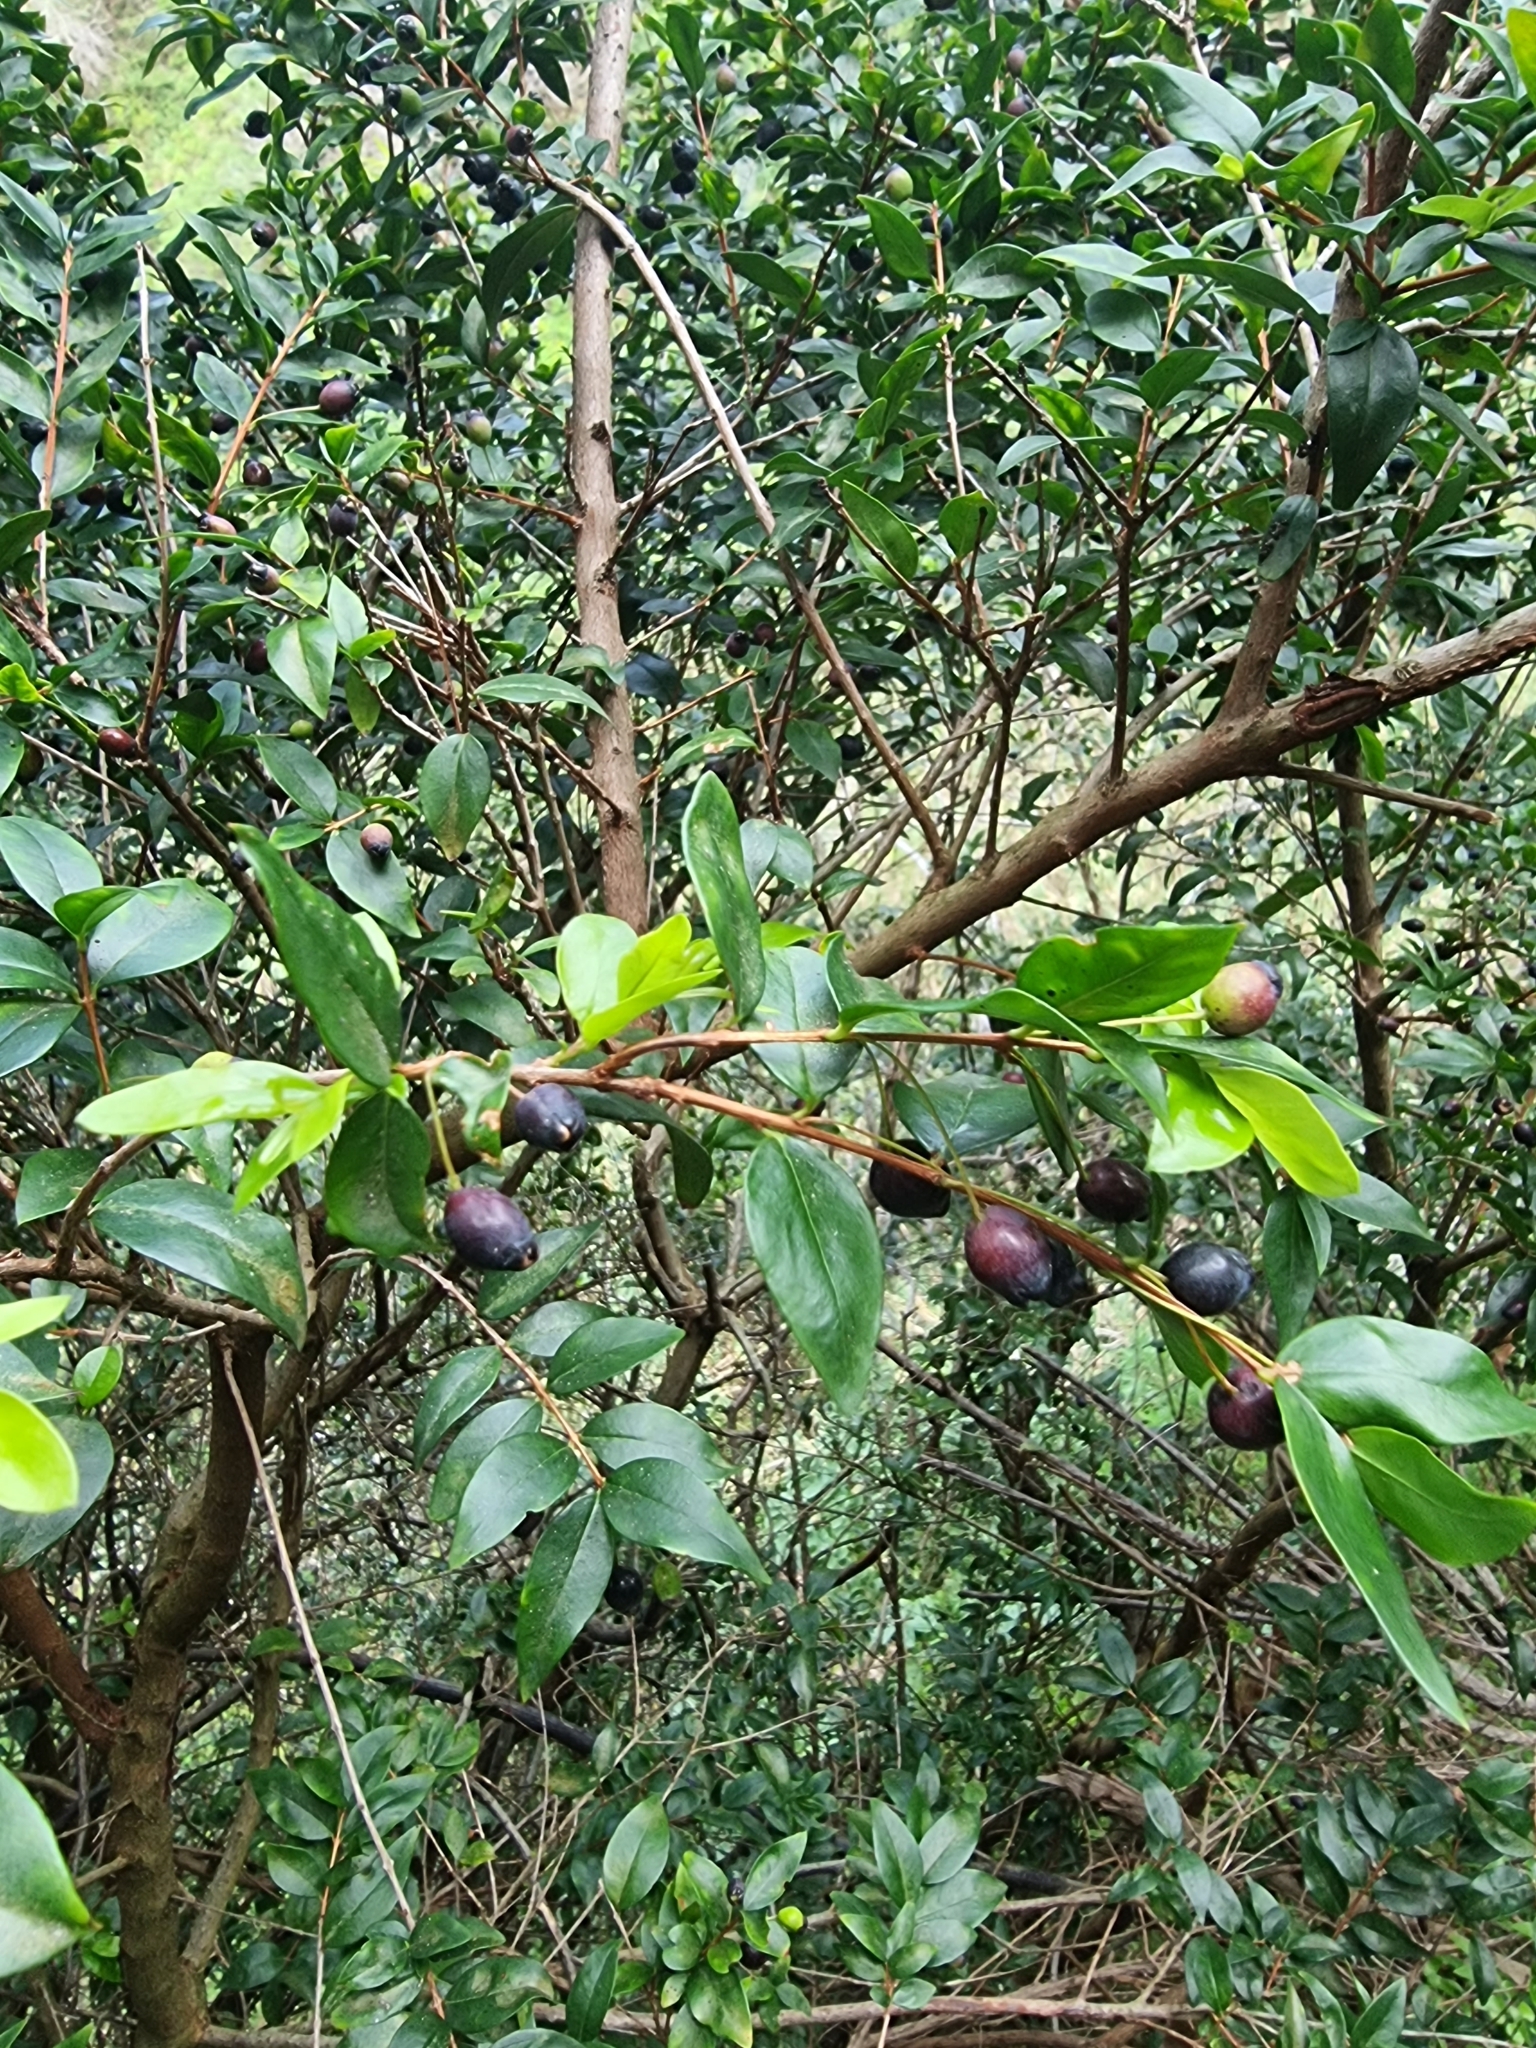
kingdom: Plantae
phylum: Tracheophyta
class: Magnoliopsida
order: Myrtales
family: Myrtaceae
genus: Myrtus
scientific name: Myrtus communis
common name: Myrtle
